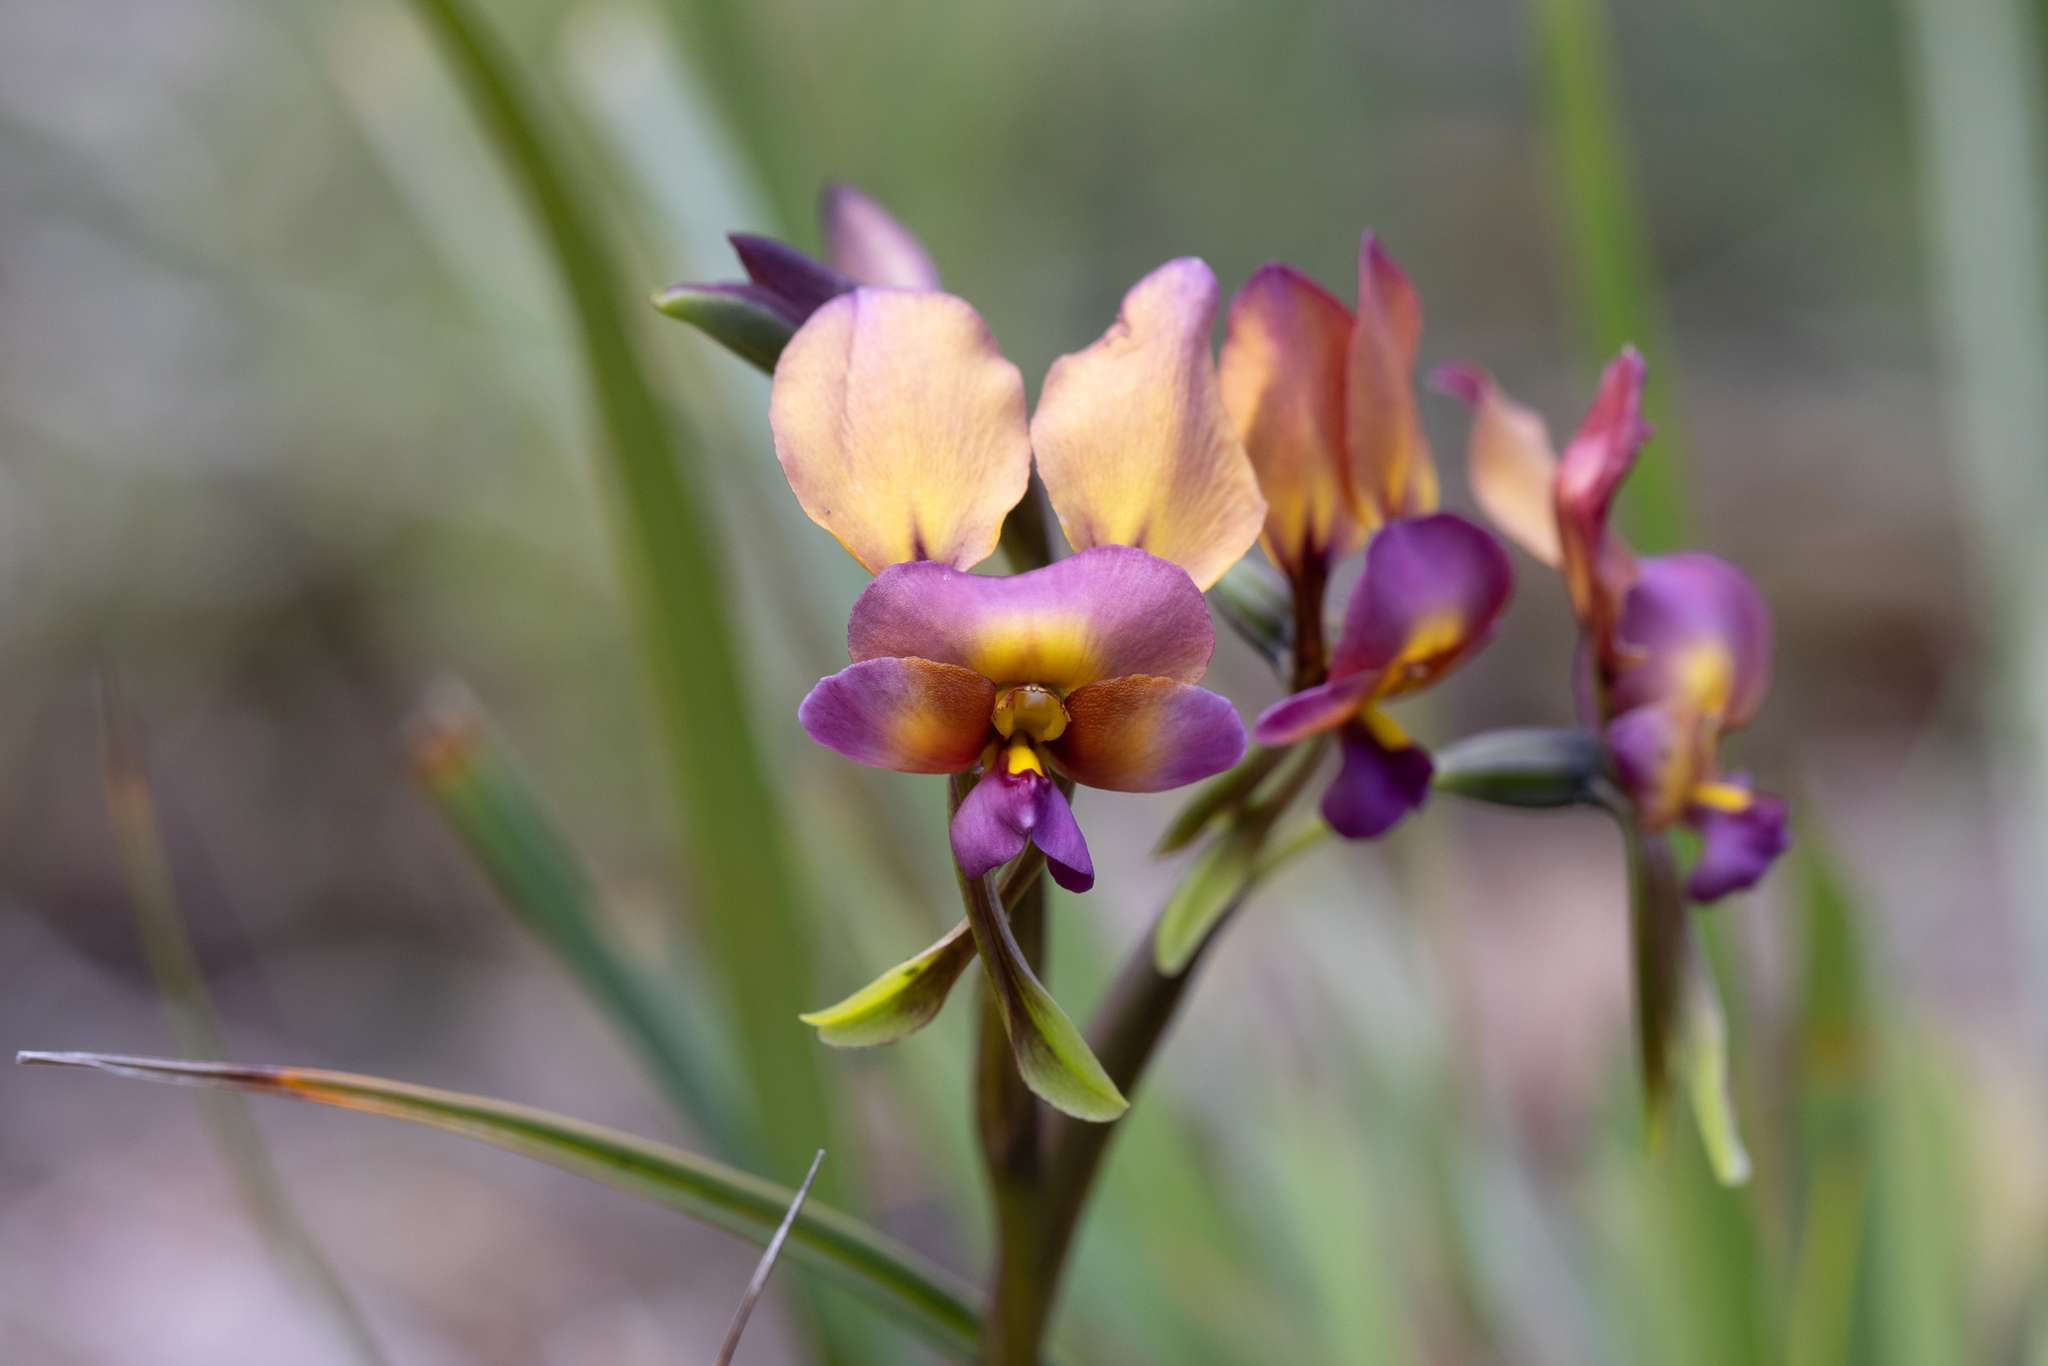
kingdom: Plantae
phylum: Tracheophyta
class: Liliopsida
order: Asparagales
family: Orchidaceae
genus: Diuris
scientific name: Diuris longifolia
